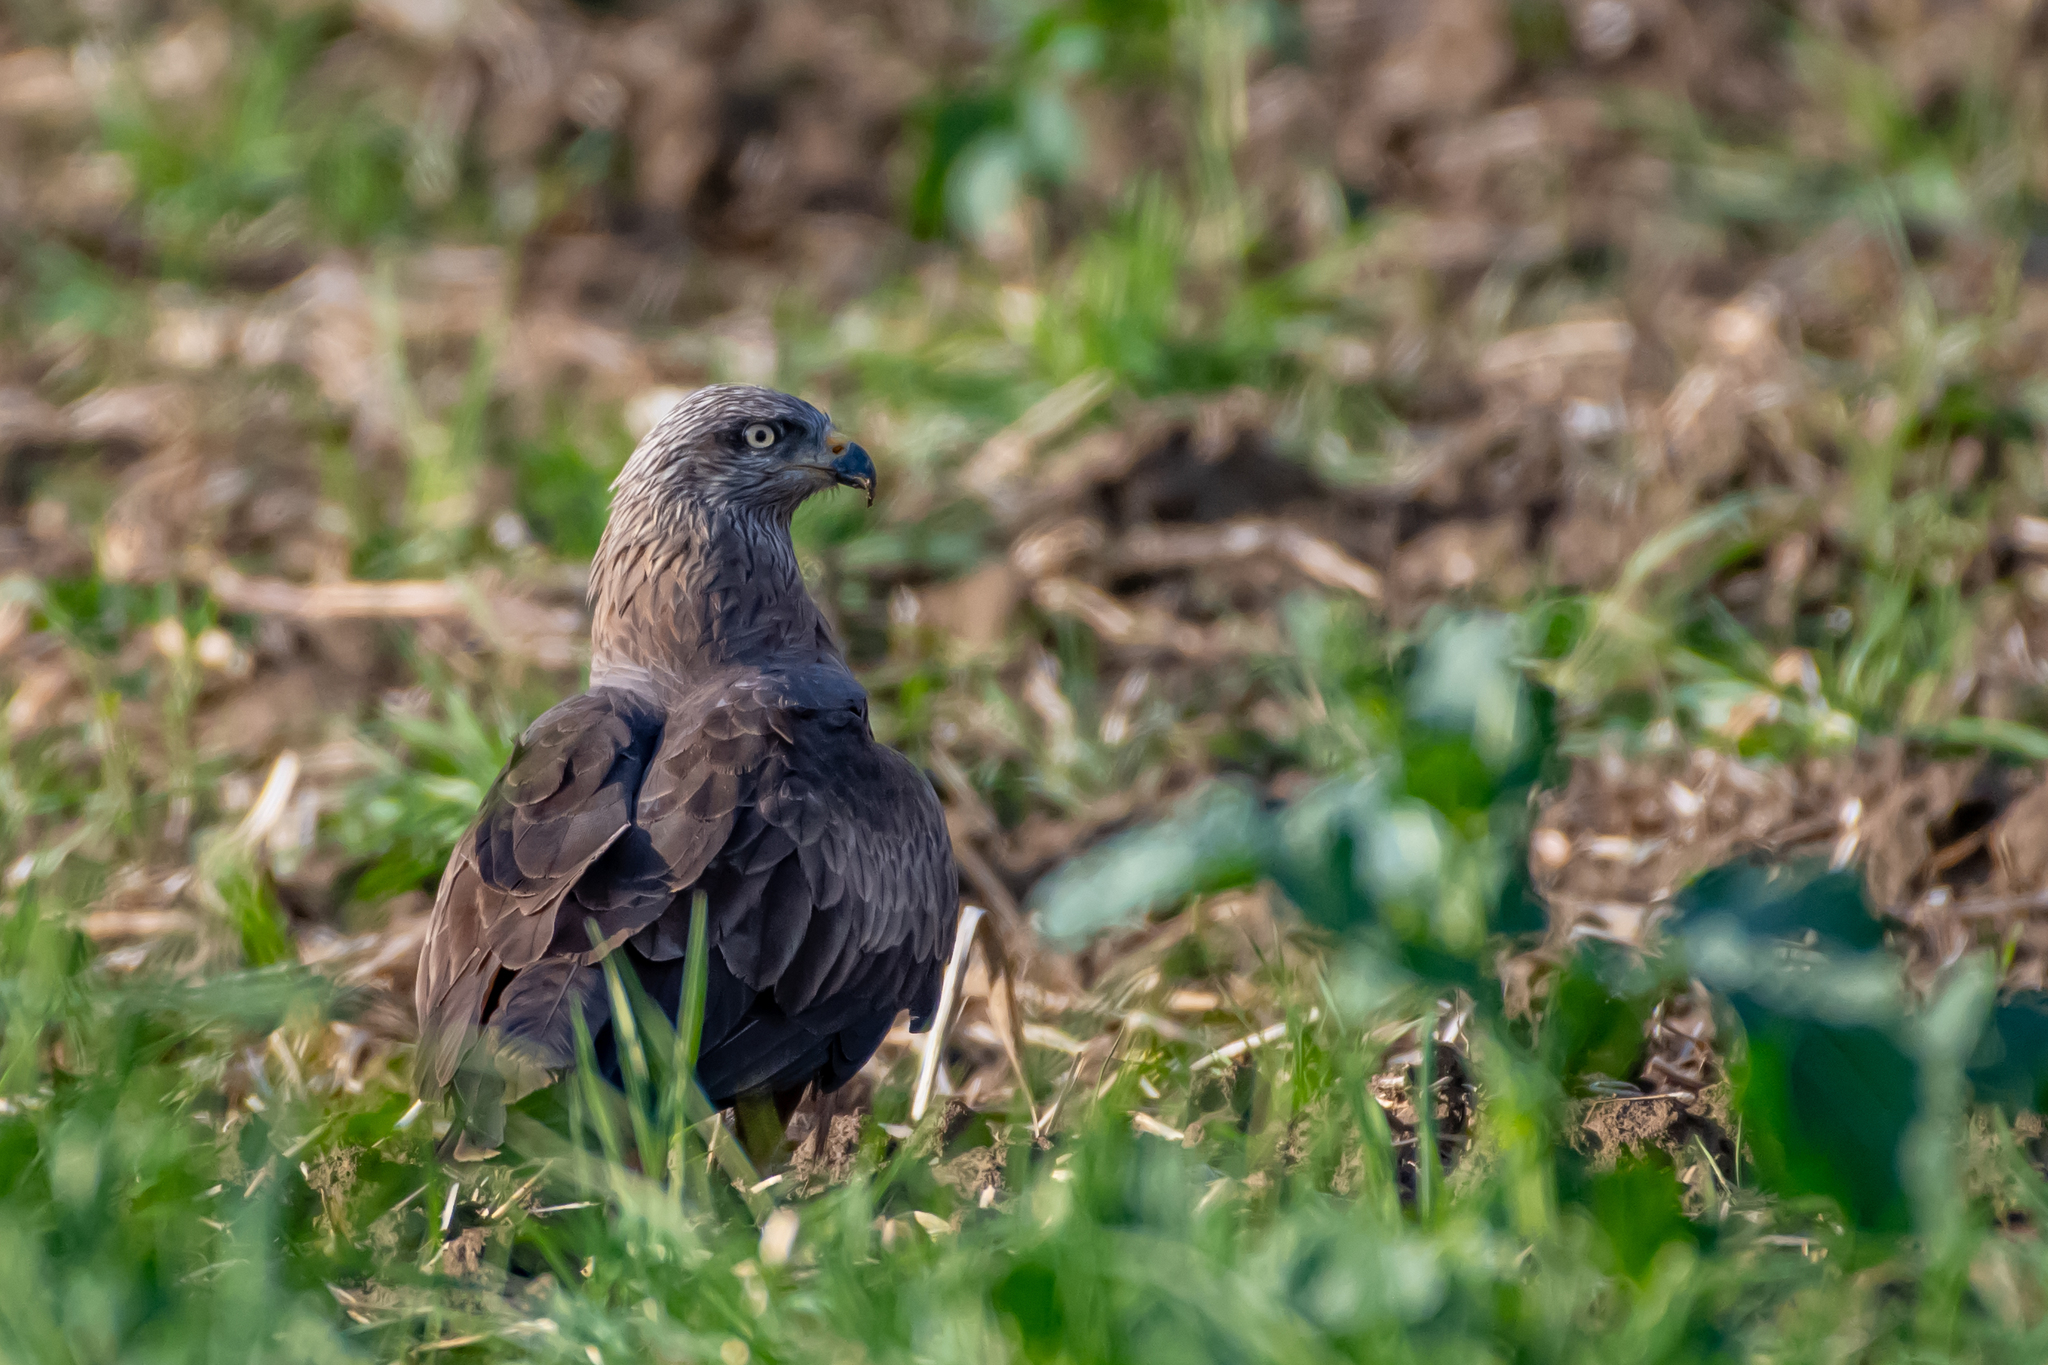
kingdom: Animalia
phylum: Chordata
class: Aves
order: Accipitriformes
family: Accipitridae
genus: Milvus
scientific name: Milvus migrans
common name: Black kite
